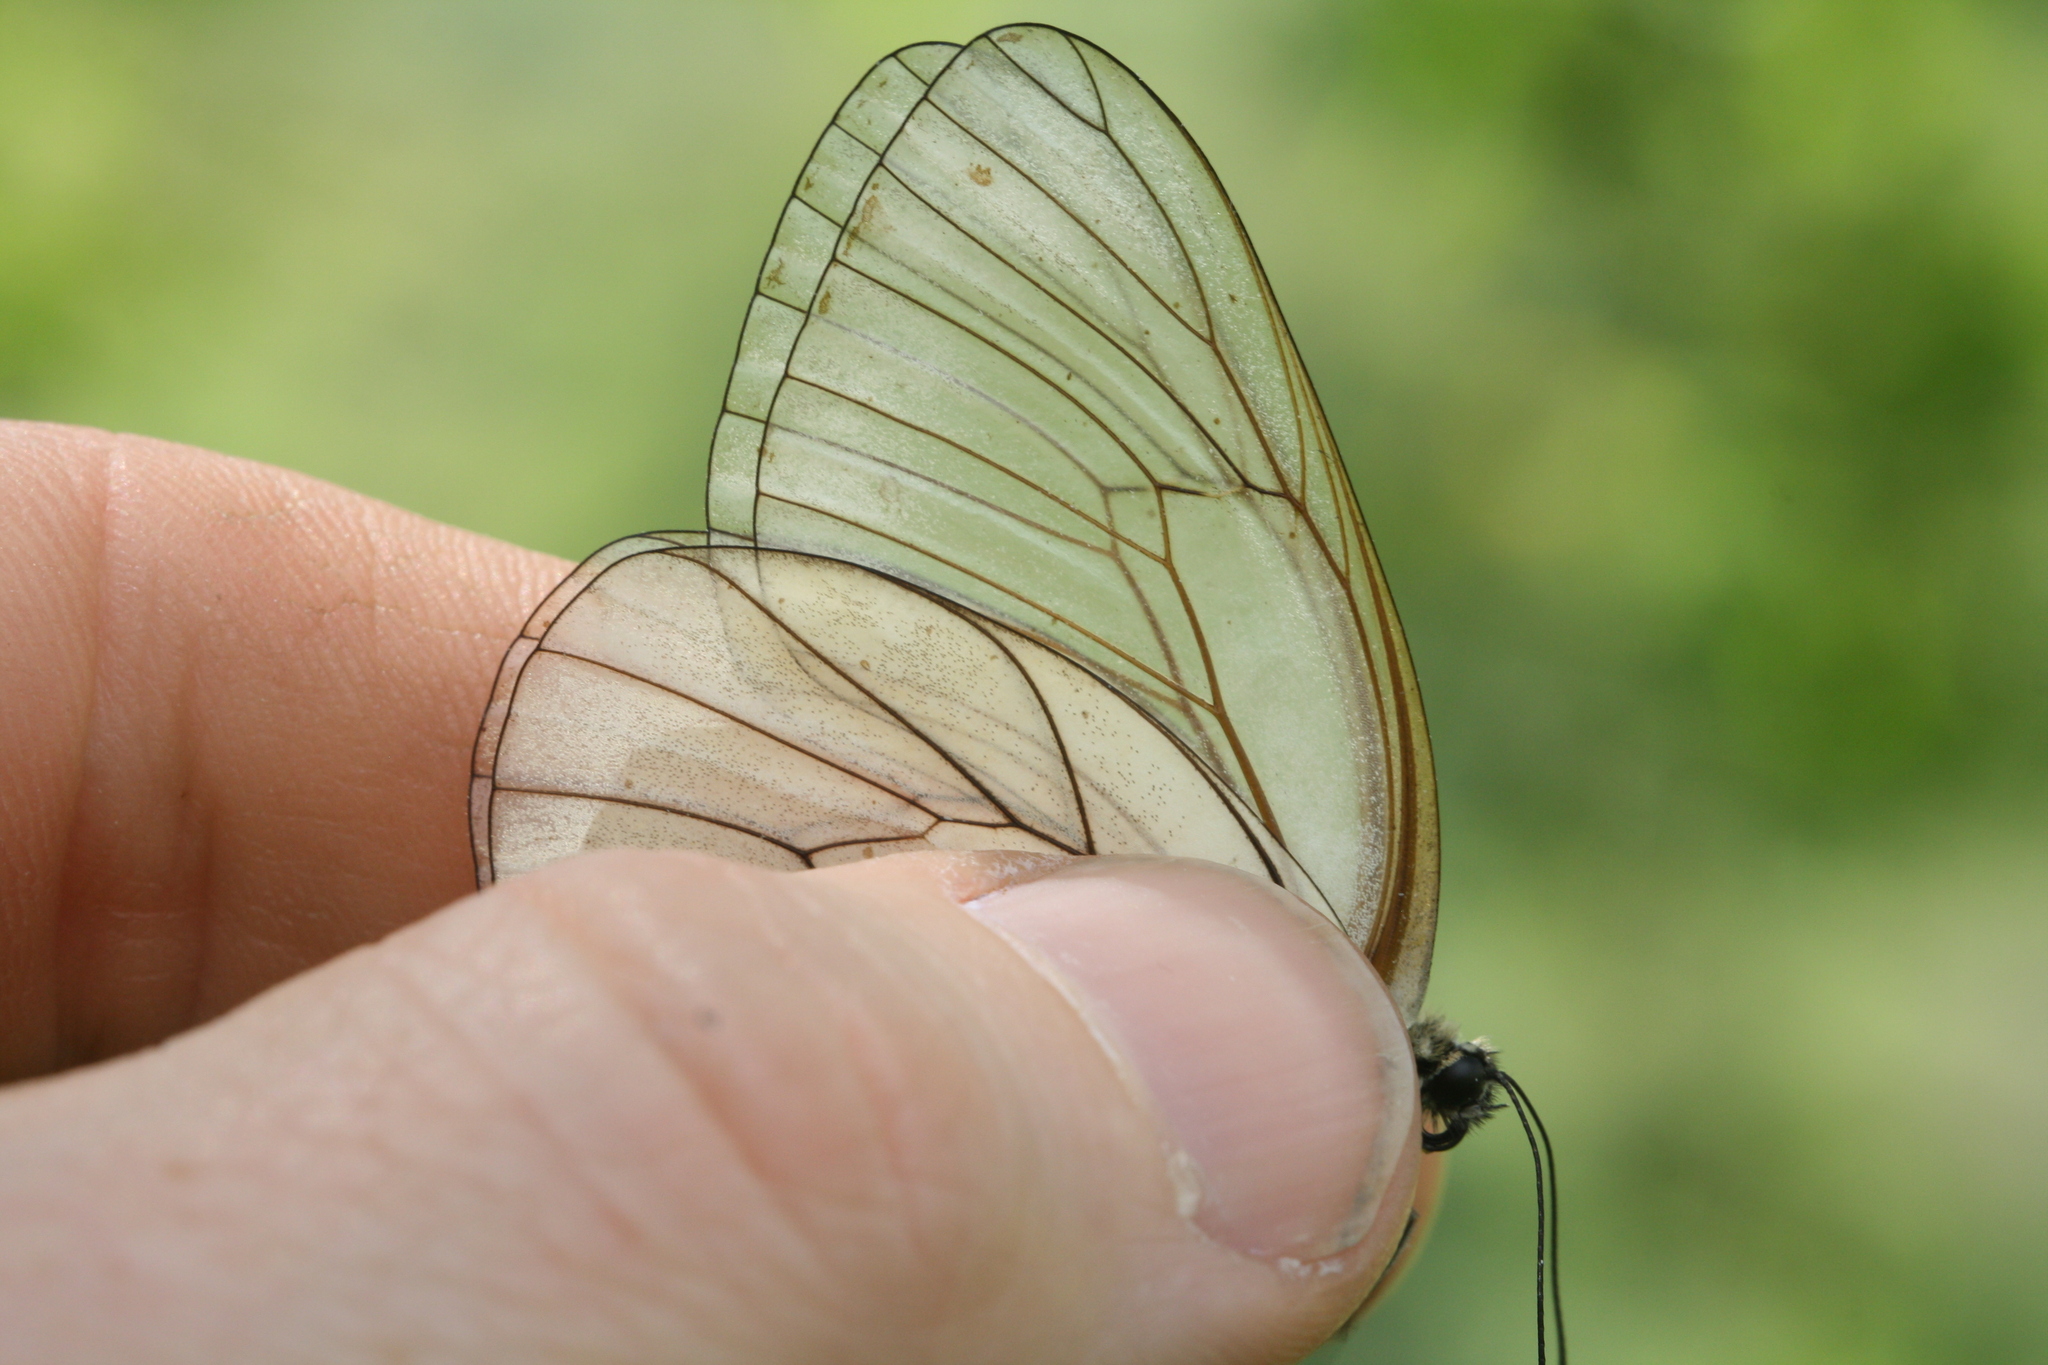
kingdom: Animalia
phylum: Arthropoda
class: Insecta
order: Lepidoptera
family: Pieridae
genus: Aporia
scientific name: Aporia crataegi
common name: Black-veined white
